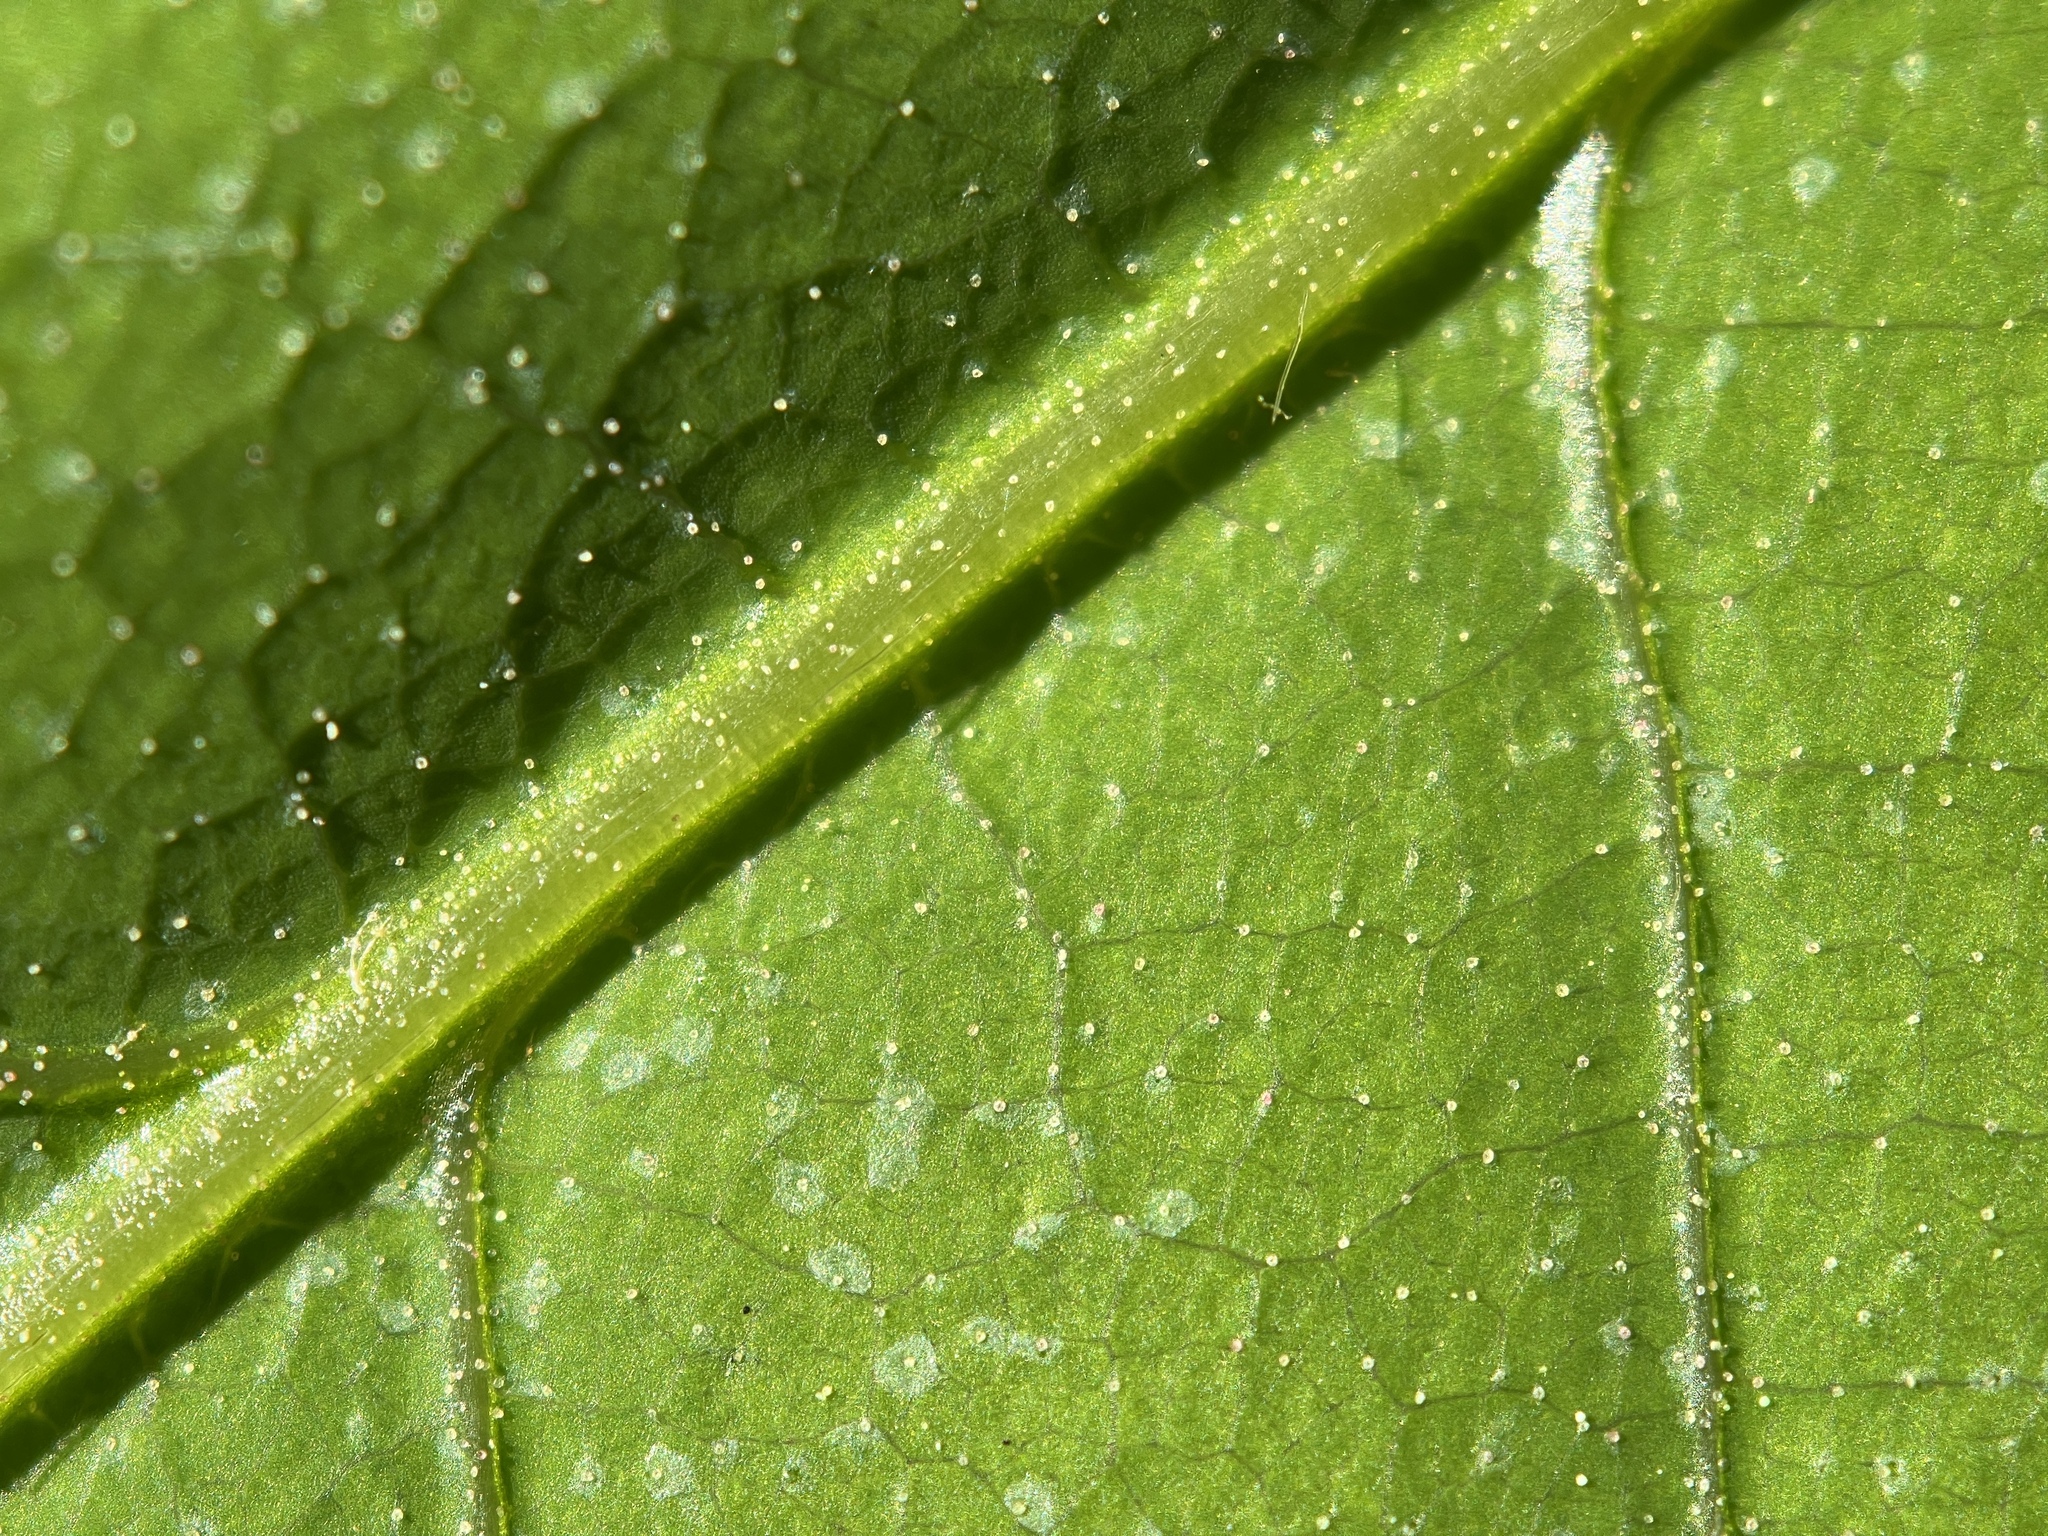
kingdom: Plantae
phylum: Tracheophyta
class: Magnoliopsida
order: Fagales
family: Fagaceae
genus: Castanea
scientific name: Castanea dentata
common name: American chestnut
